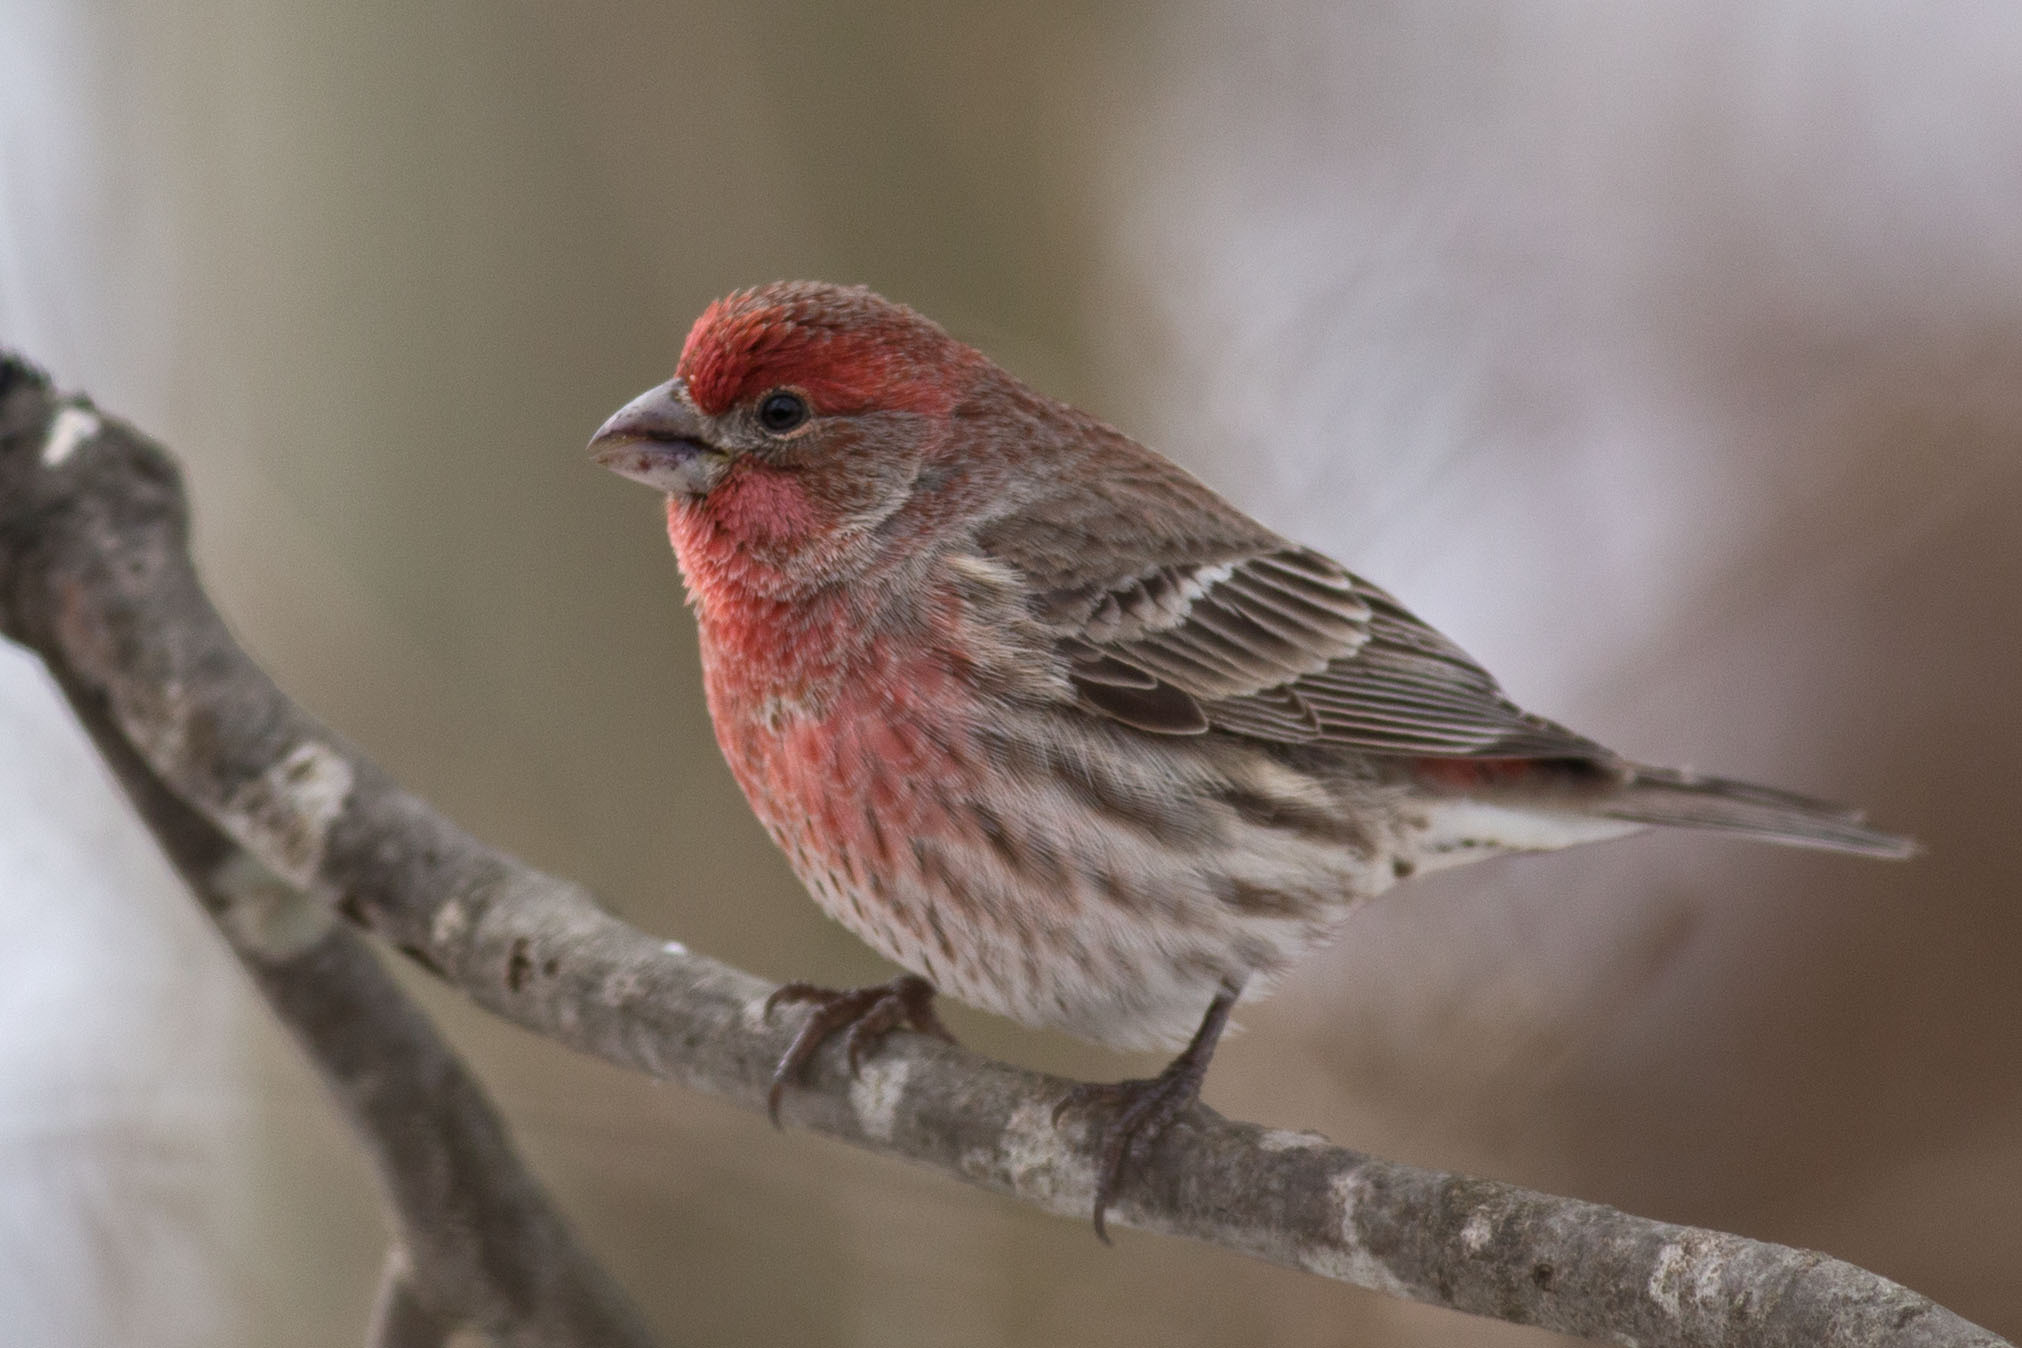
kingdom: Animalia
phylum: Chordata
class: Aves
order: Passeriformes
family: Fringillidae
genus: Haemorhous
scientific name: Haemorhous mexicanus
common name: House finch
